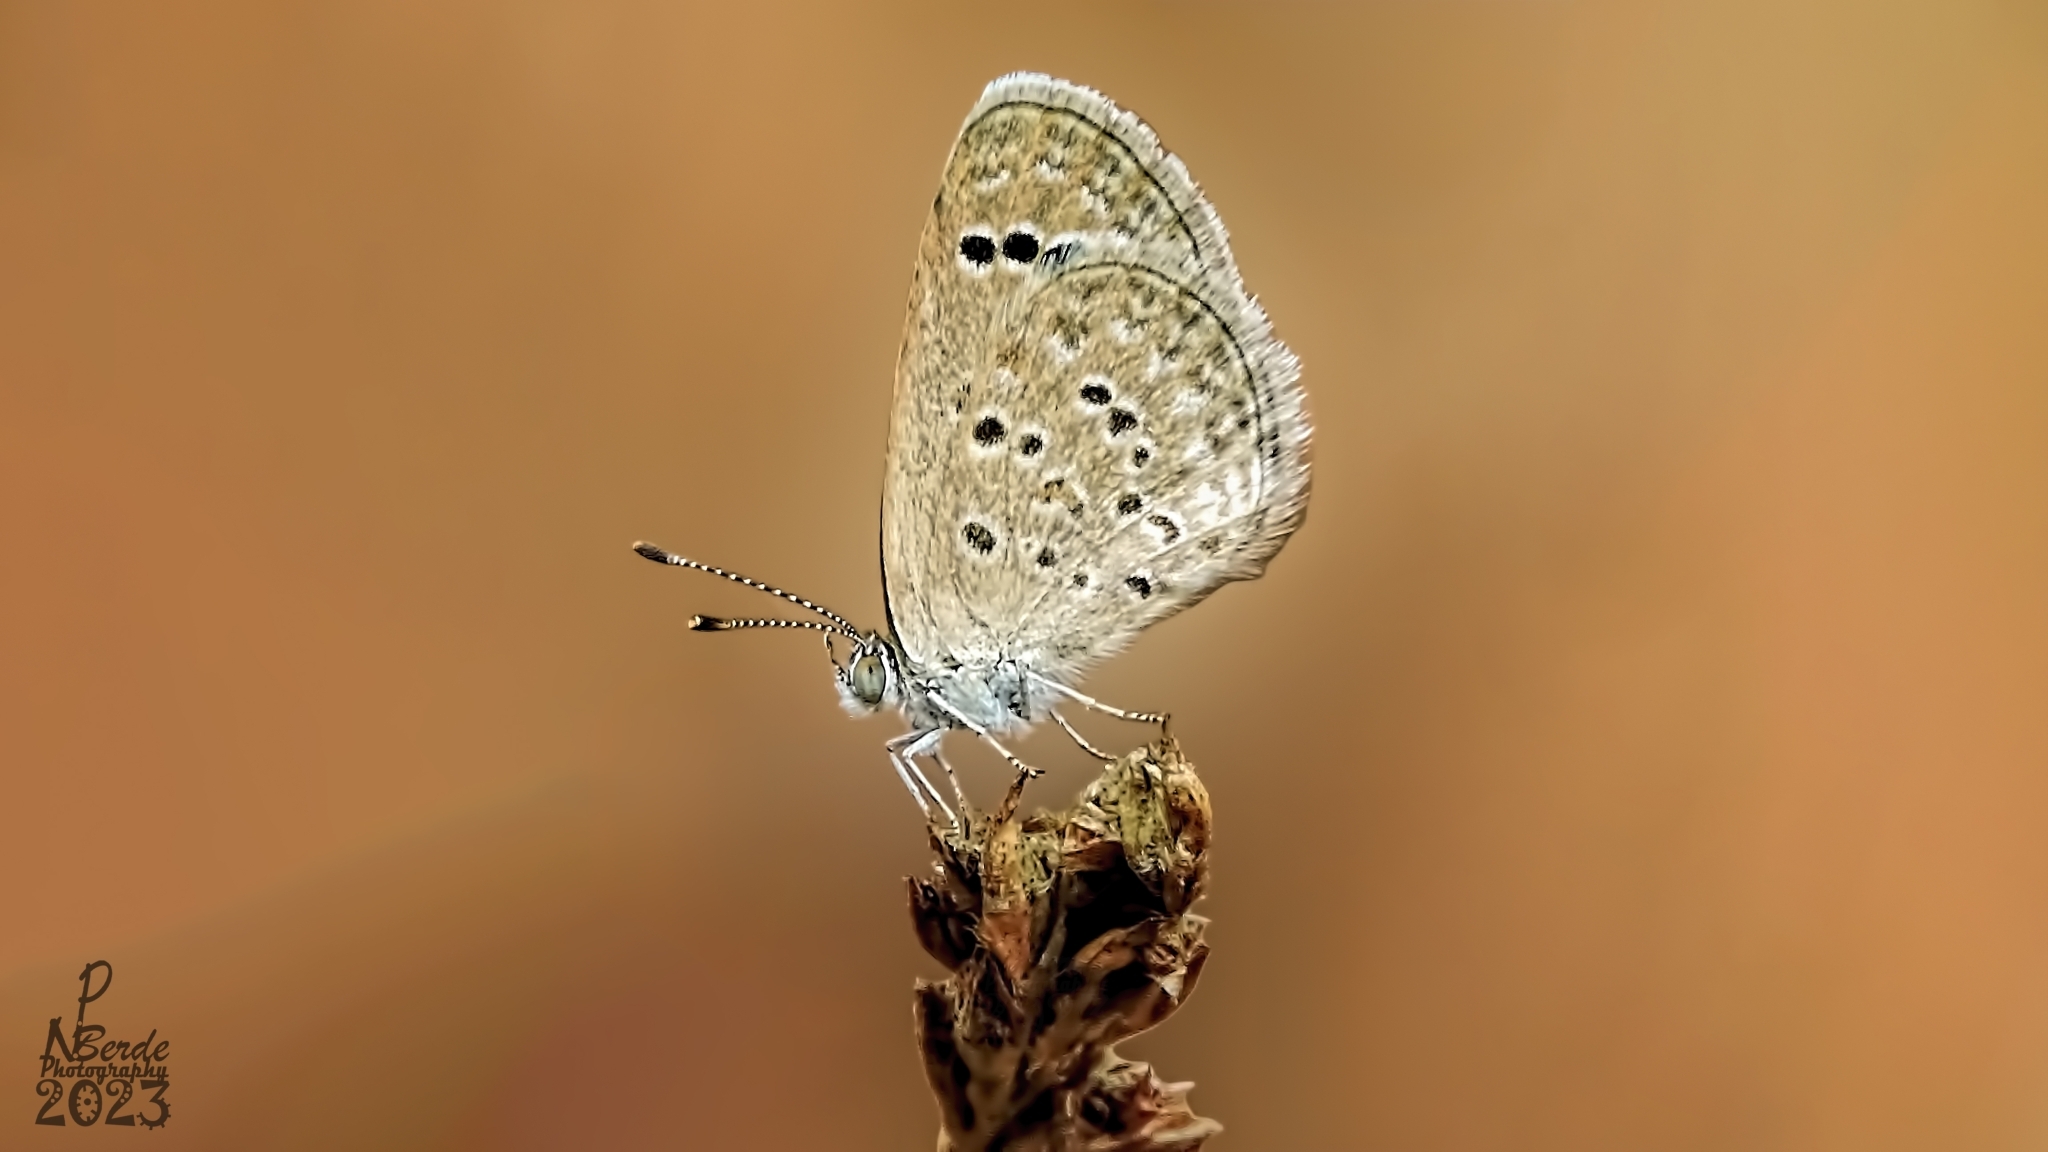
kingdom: Animalia
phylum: Arthropoda
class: Insecta
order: Lepidoptera
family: Lycaenidae
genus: Zizina
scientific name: Zizina otis
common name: Lesser grass blue
